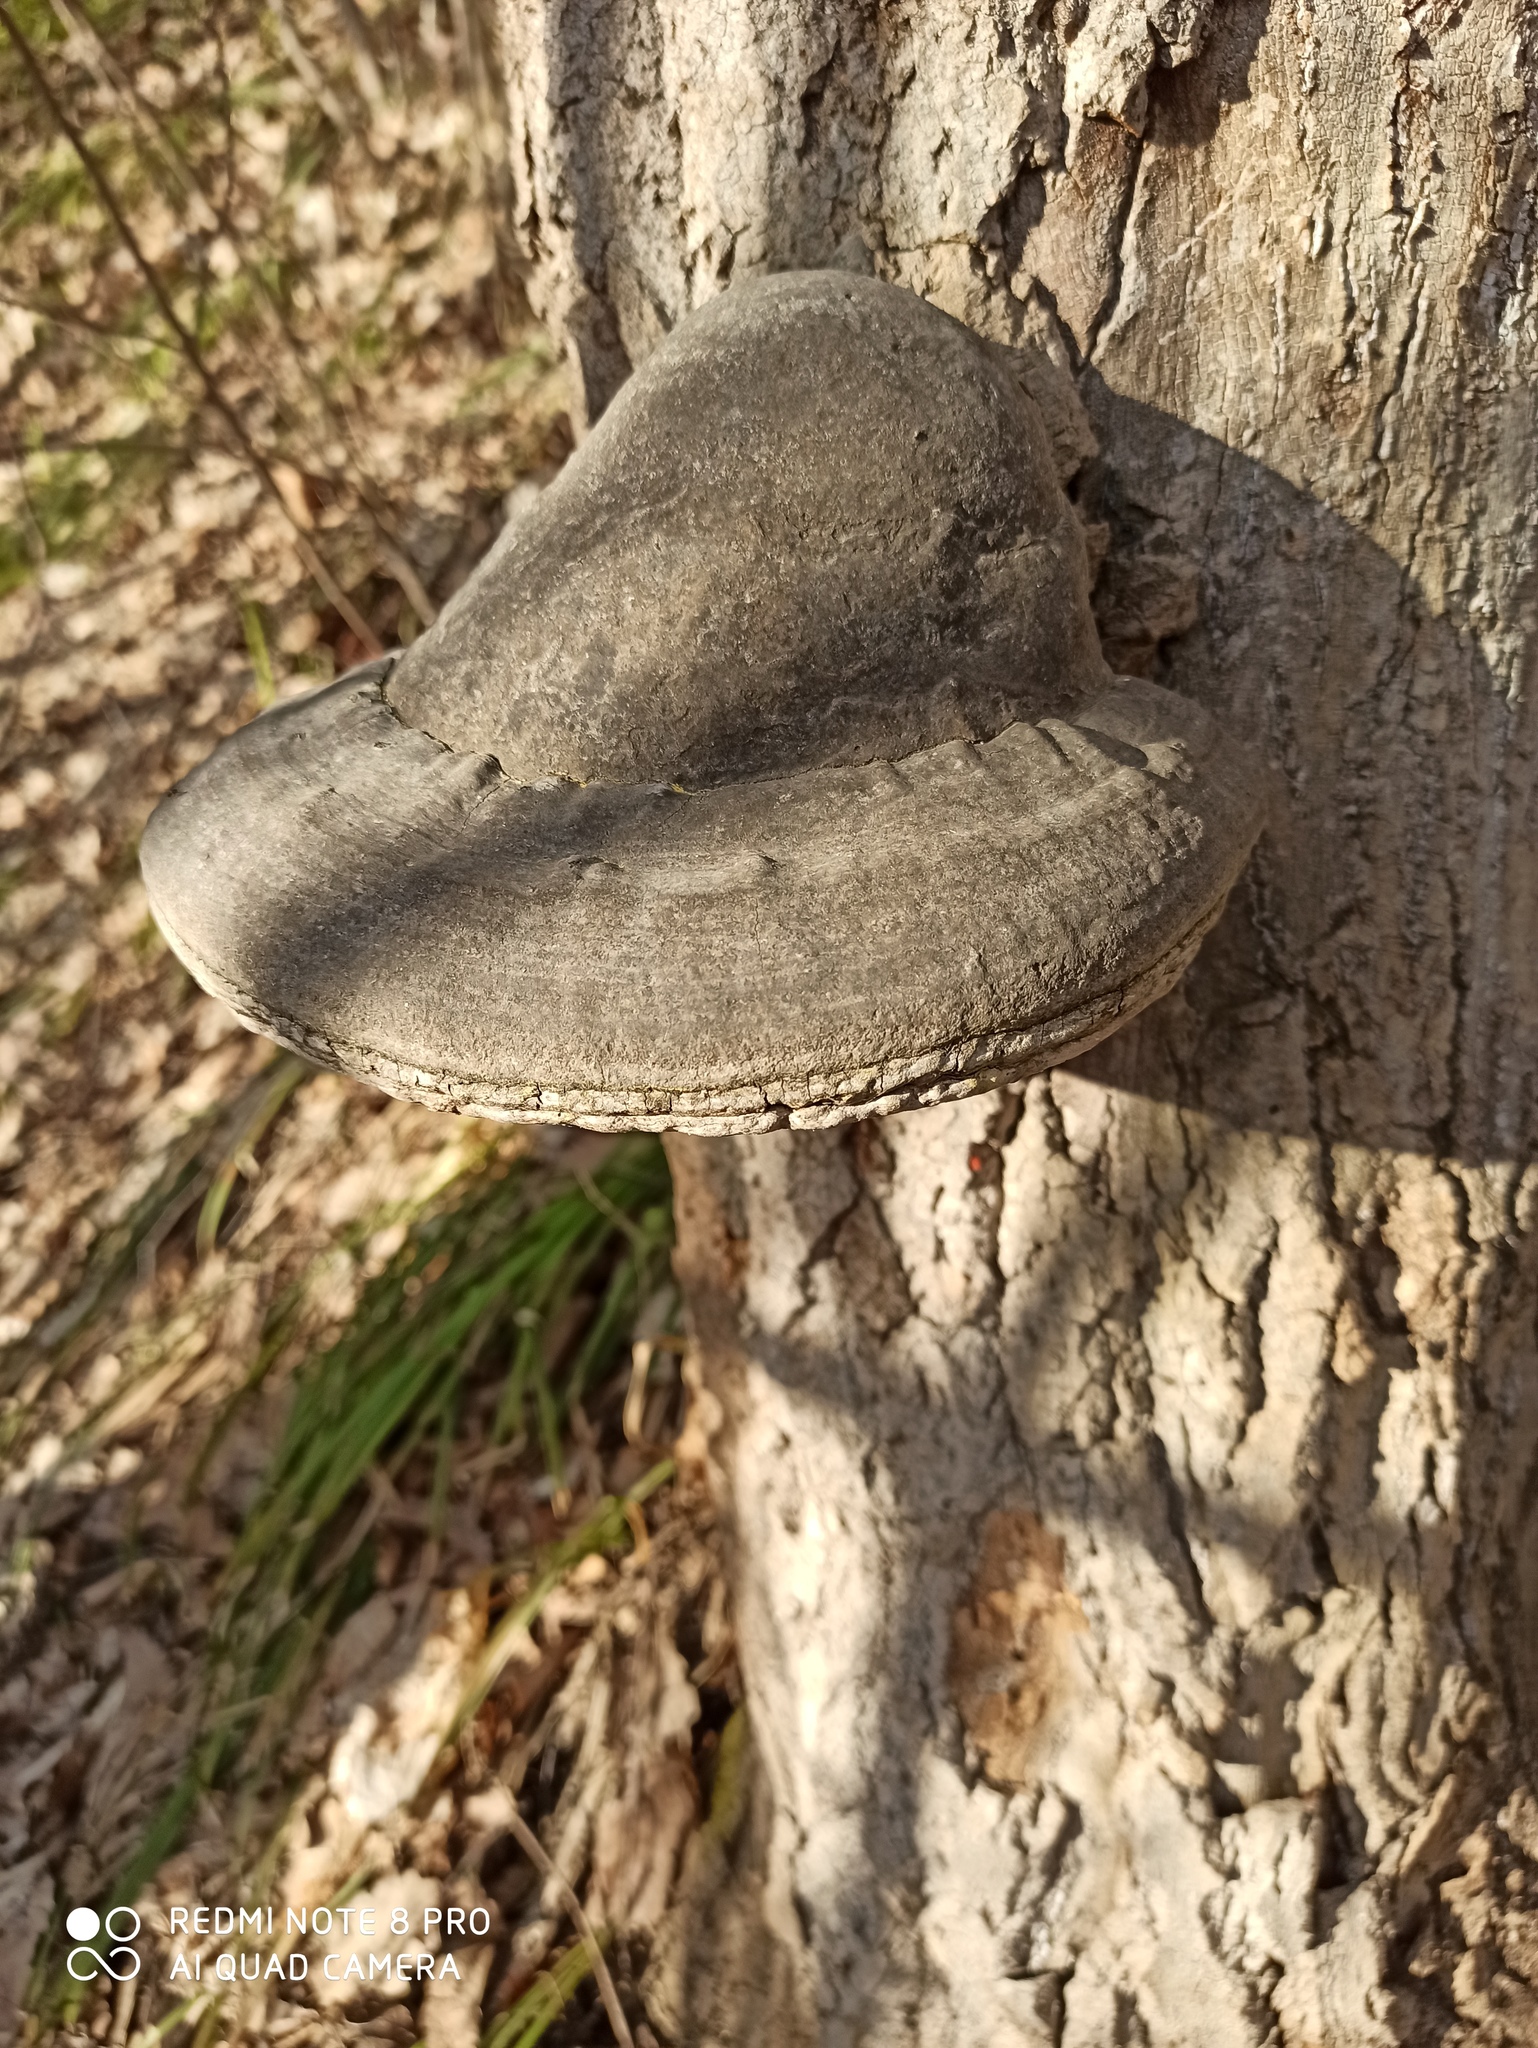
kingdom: Fungi
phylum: Basidiomycota
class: Agaricomycetes
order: Polyporales
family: Polyporaceae
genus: Fomes
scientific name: Fomes fomentarius
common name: Hoof fungus
